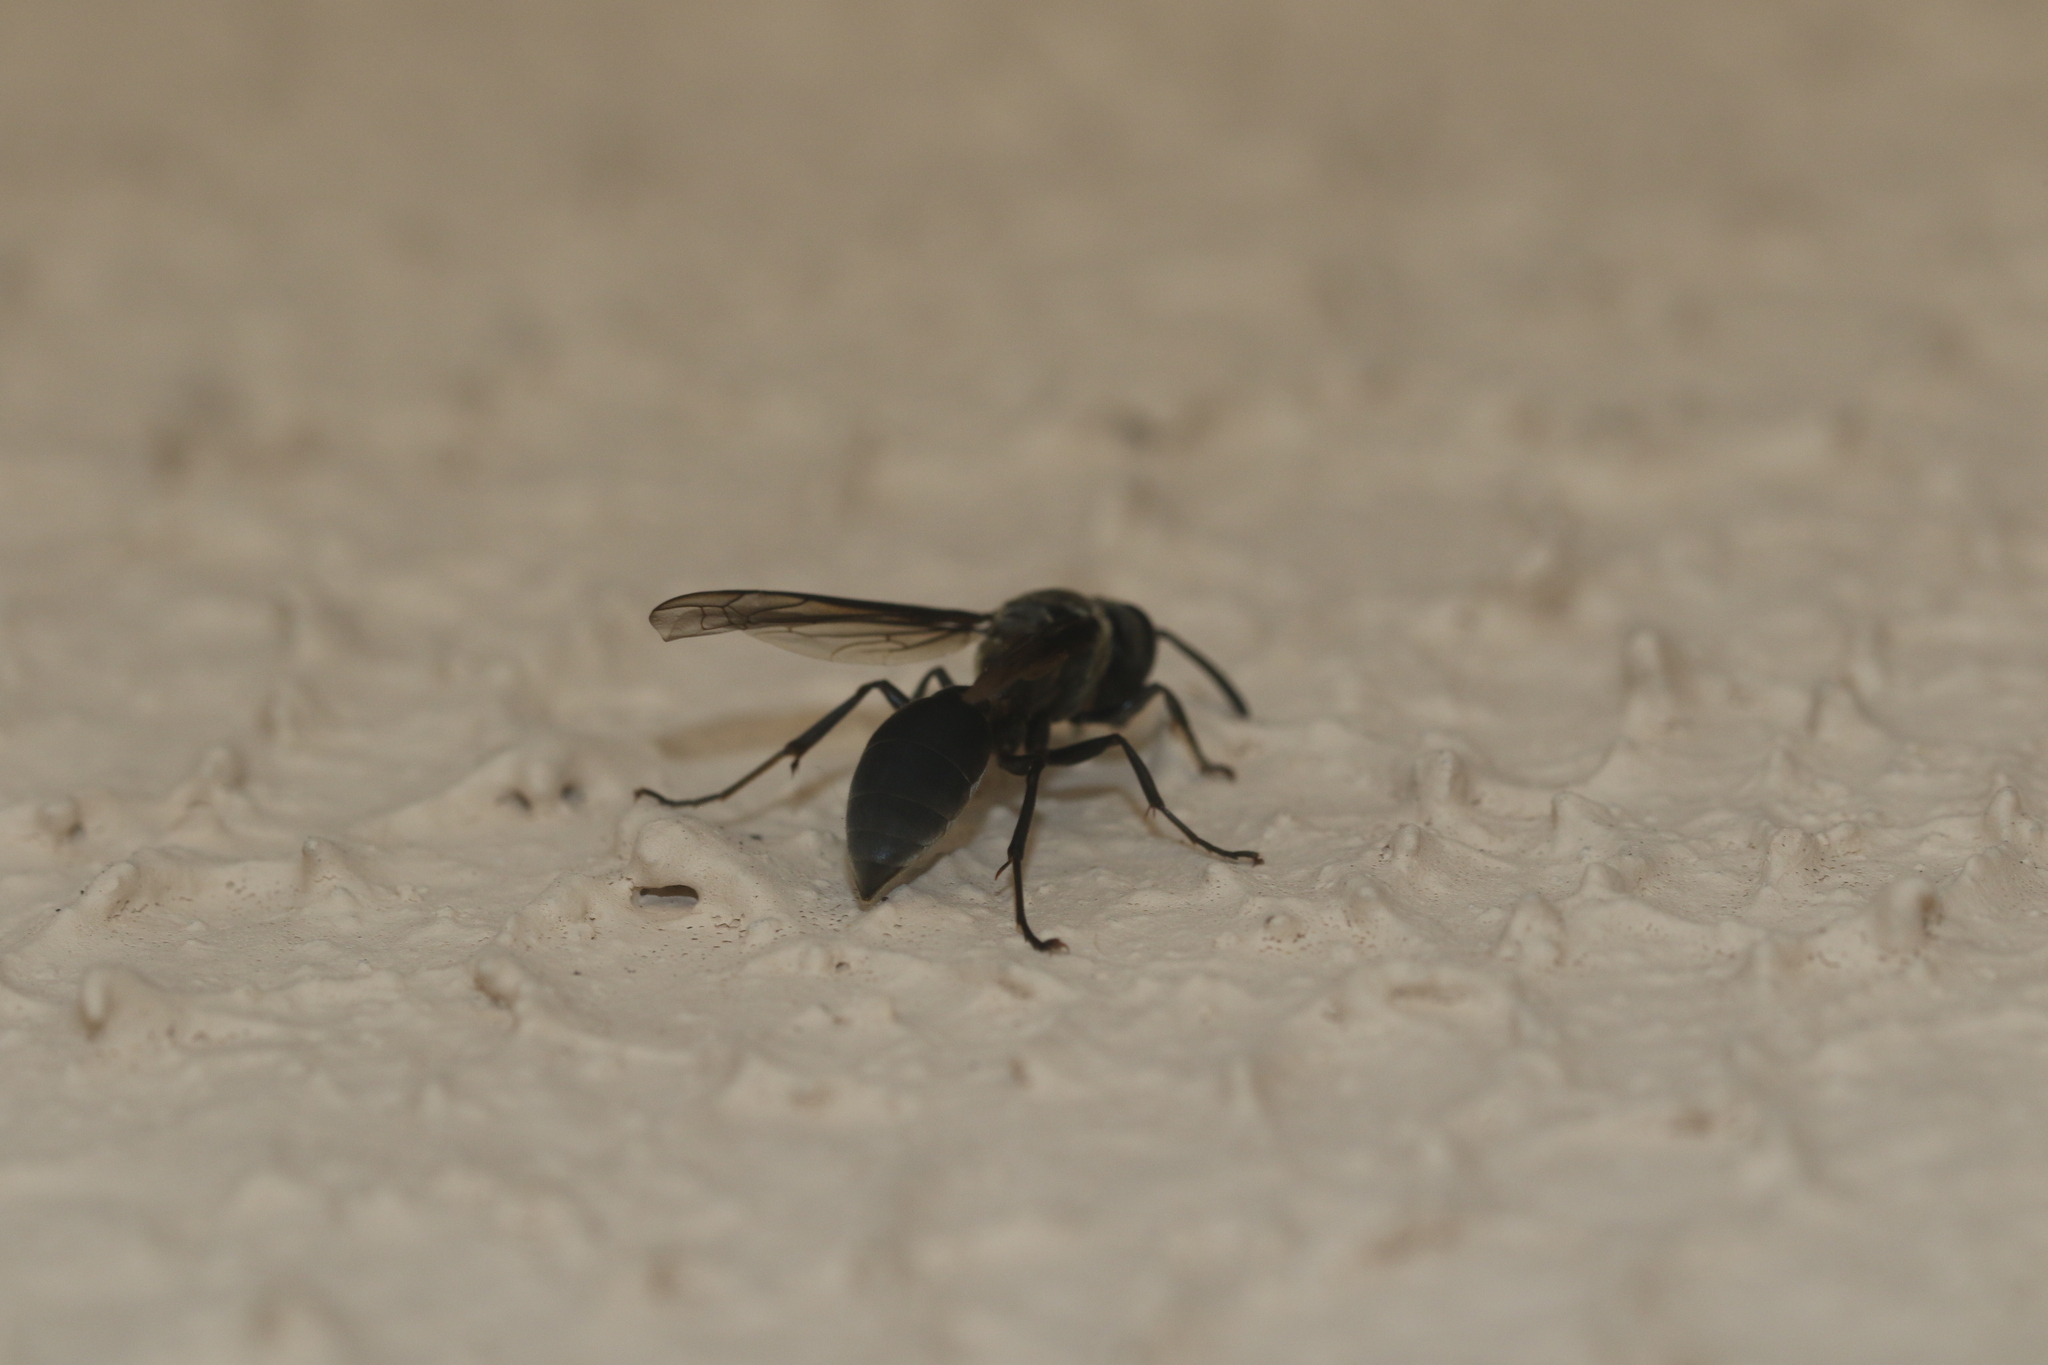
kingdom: Animalia
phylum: Arthropoda
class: Insecta
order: Hymenoptera
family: Eumenidae
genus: Polybia
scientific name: Polybia ignobilis
